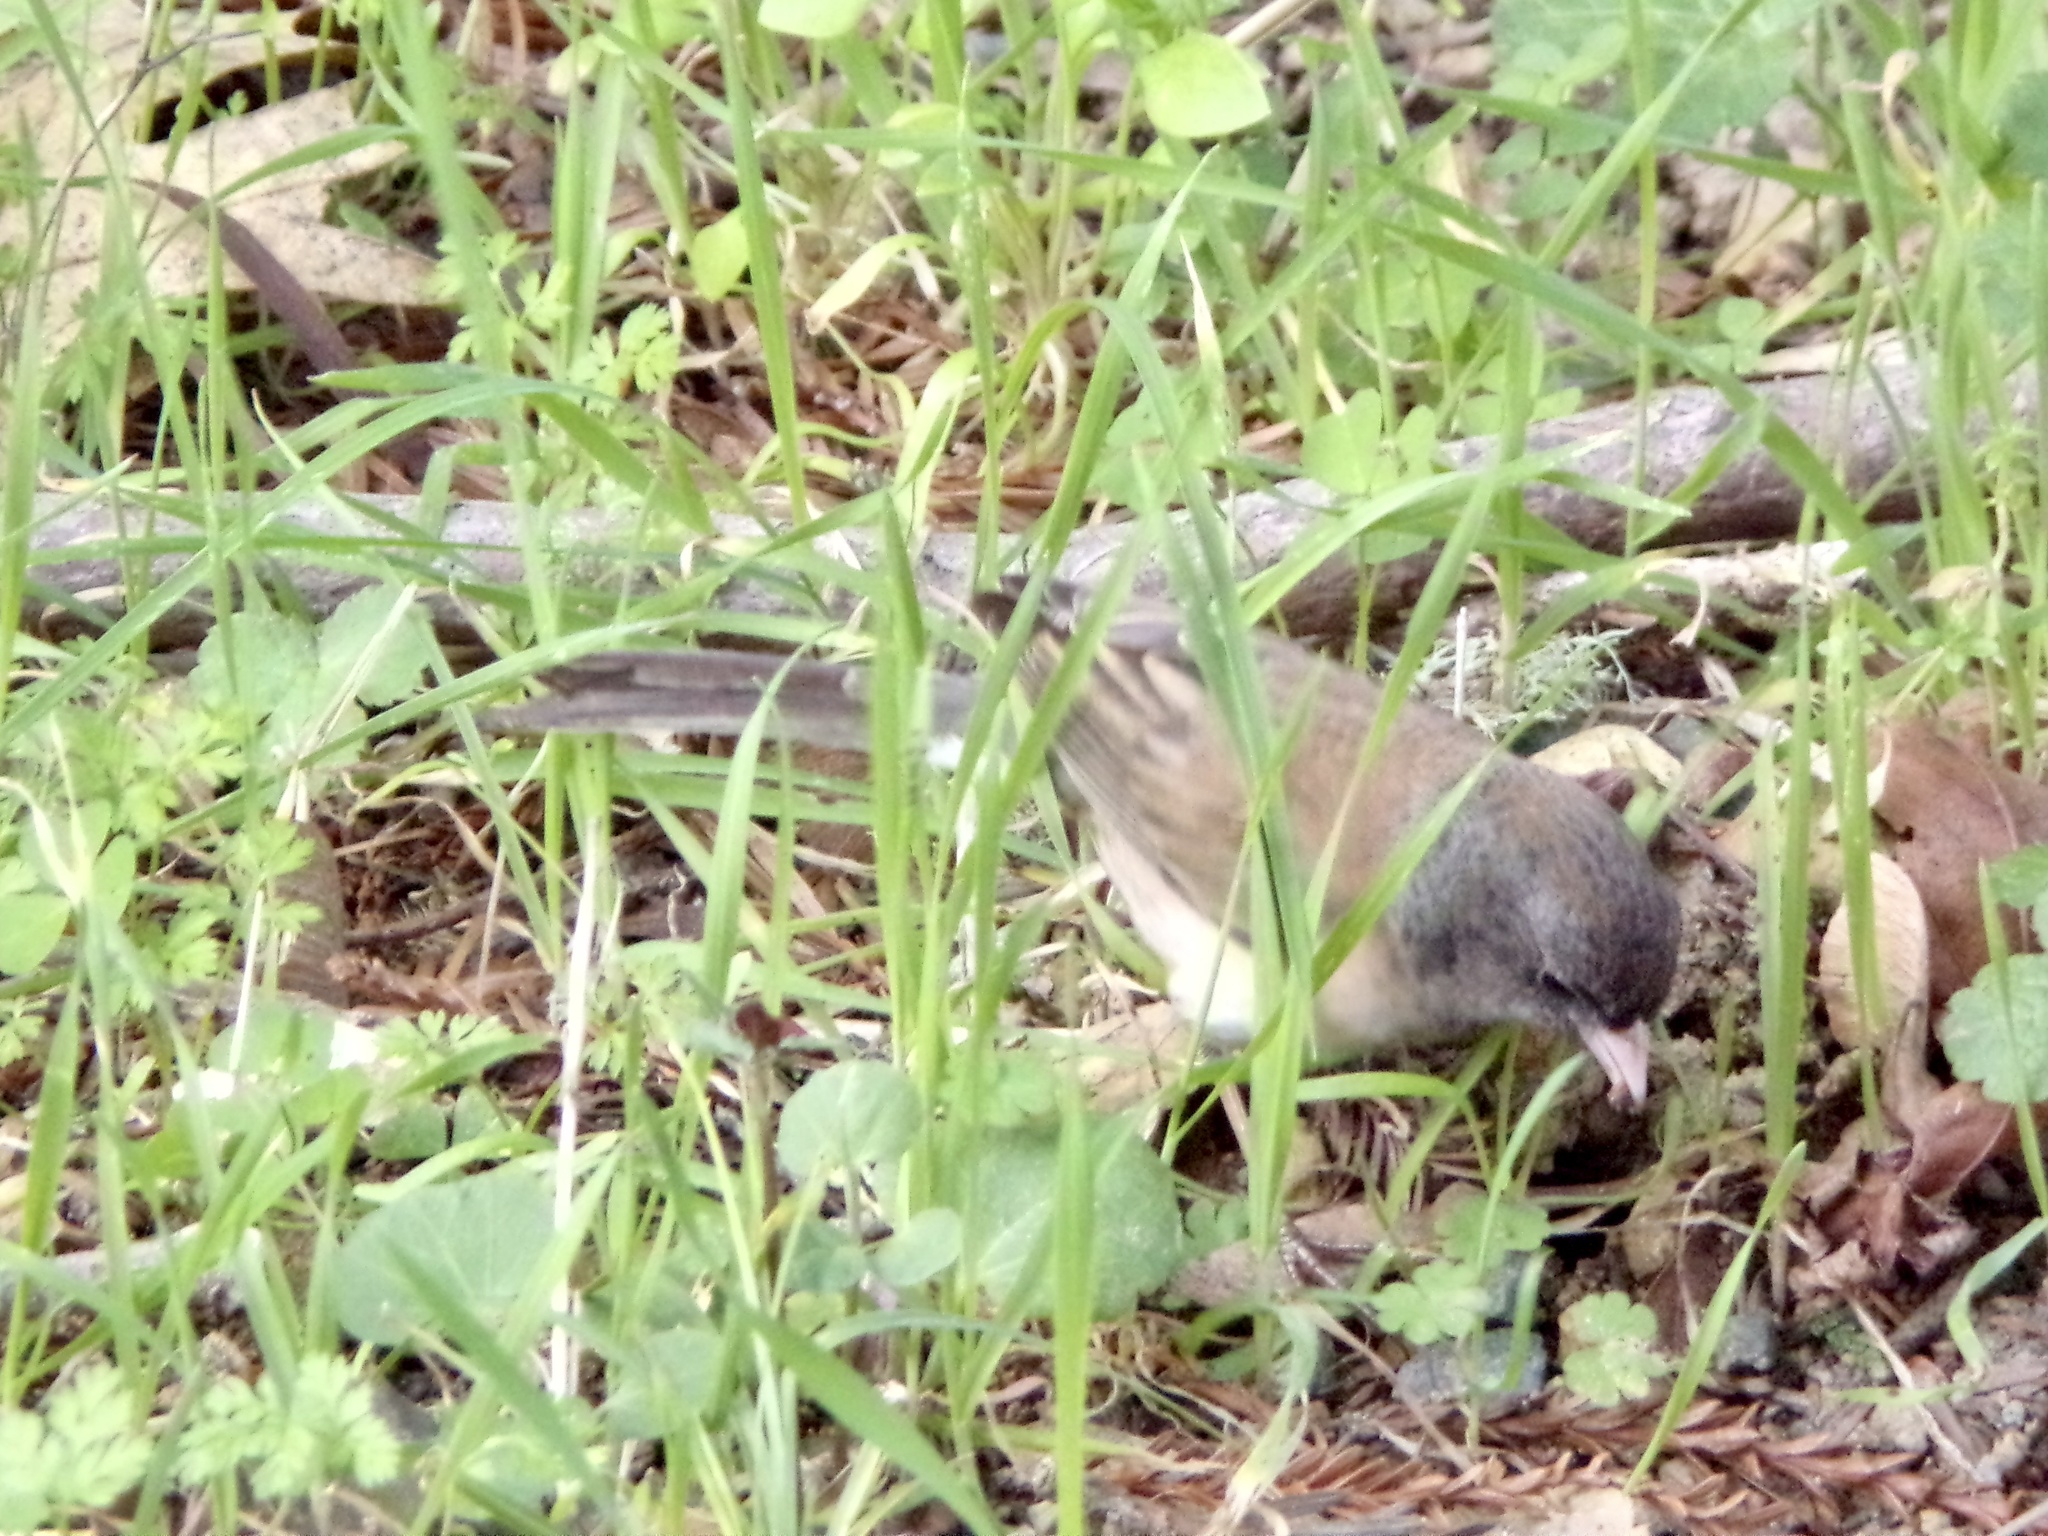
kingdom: Animalia
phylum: Chordata
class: Aves
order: Passeriformes
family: Passerellidae
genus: Junco
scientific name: Junco hyemalis
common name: Dark-eyed junco
